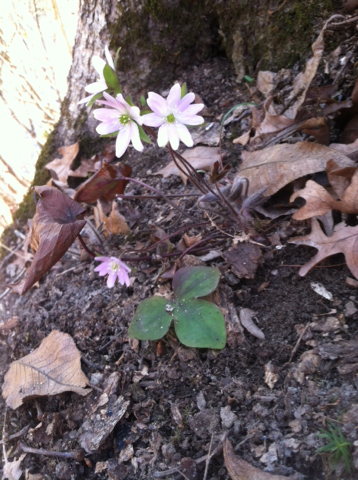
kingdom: Plantae
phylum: Tracheophyta
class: Magnoliopsida
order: Ranunculales
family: Ranunculaceae
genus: Hepatica
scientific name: Hepatica acutiloba
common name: Sharp-lobed hepatica
